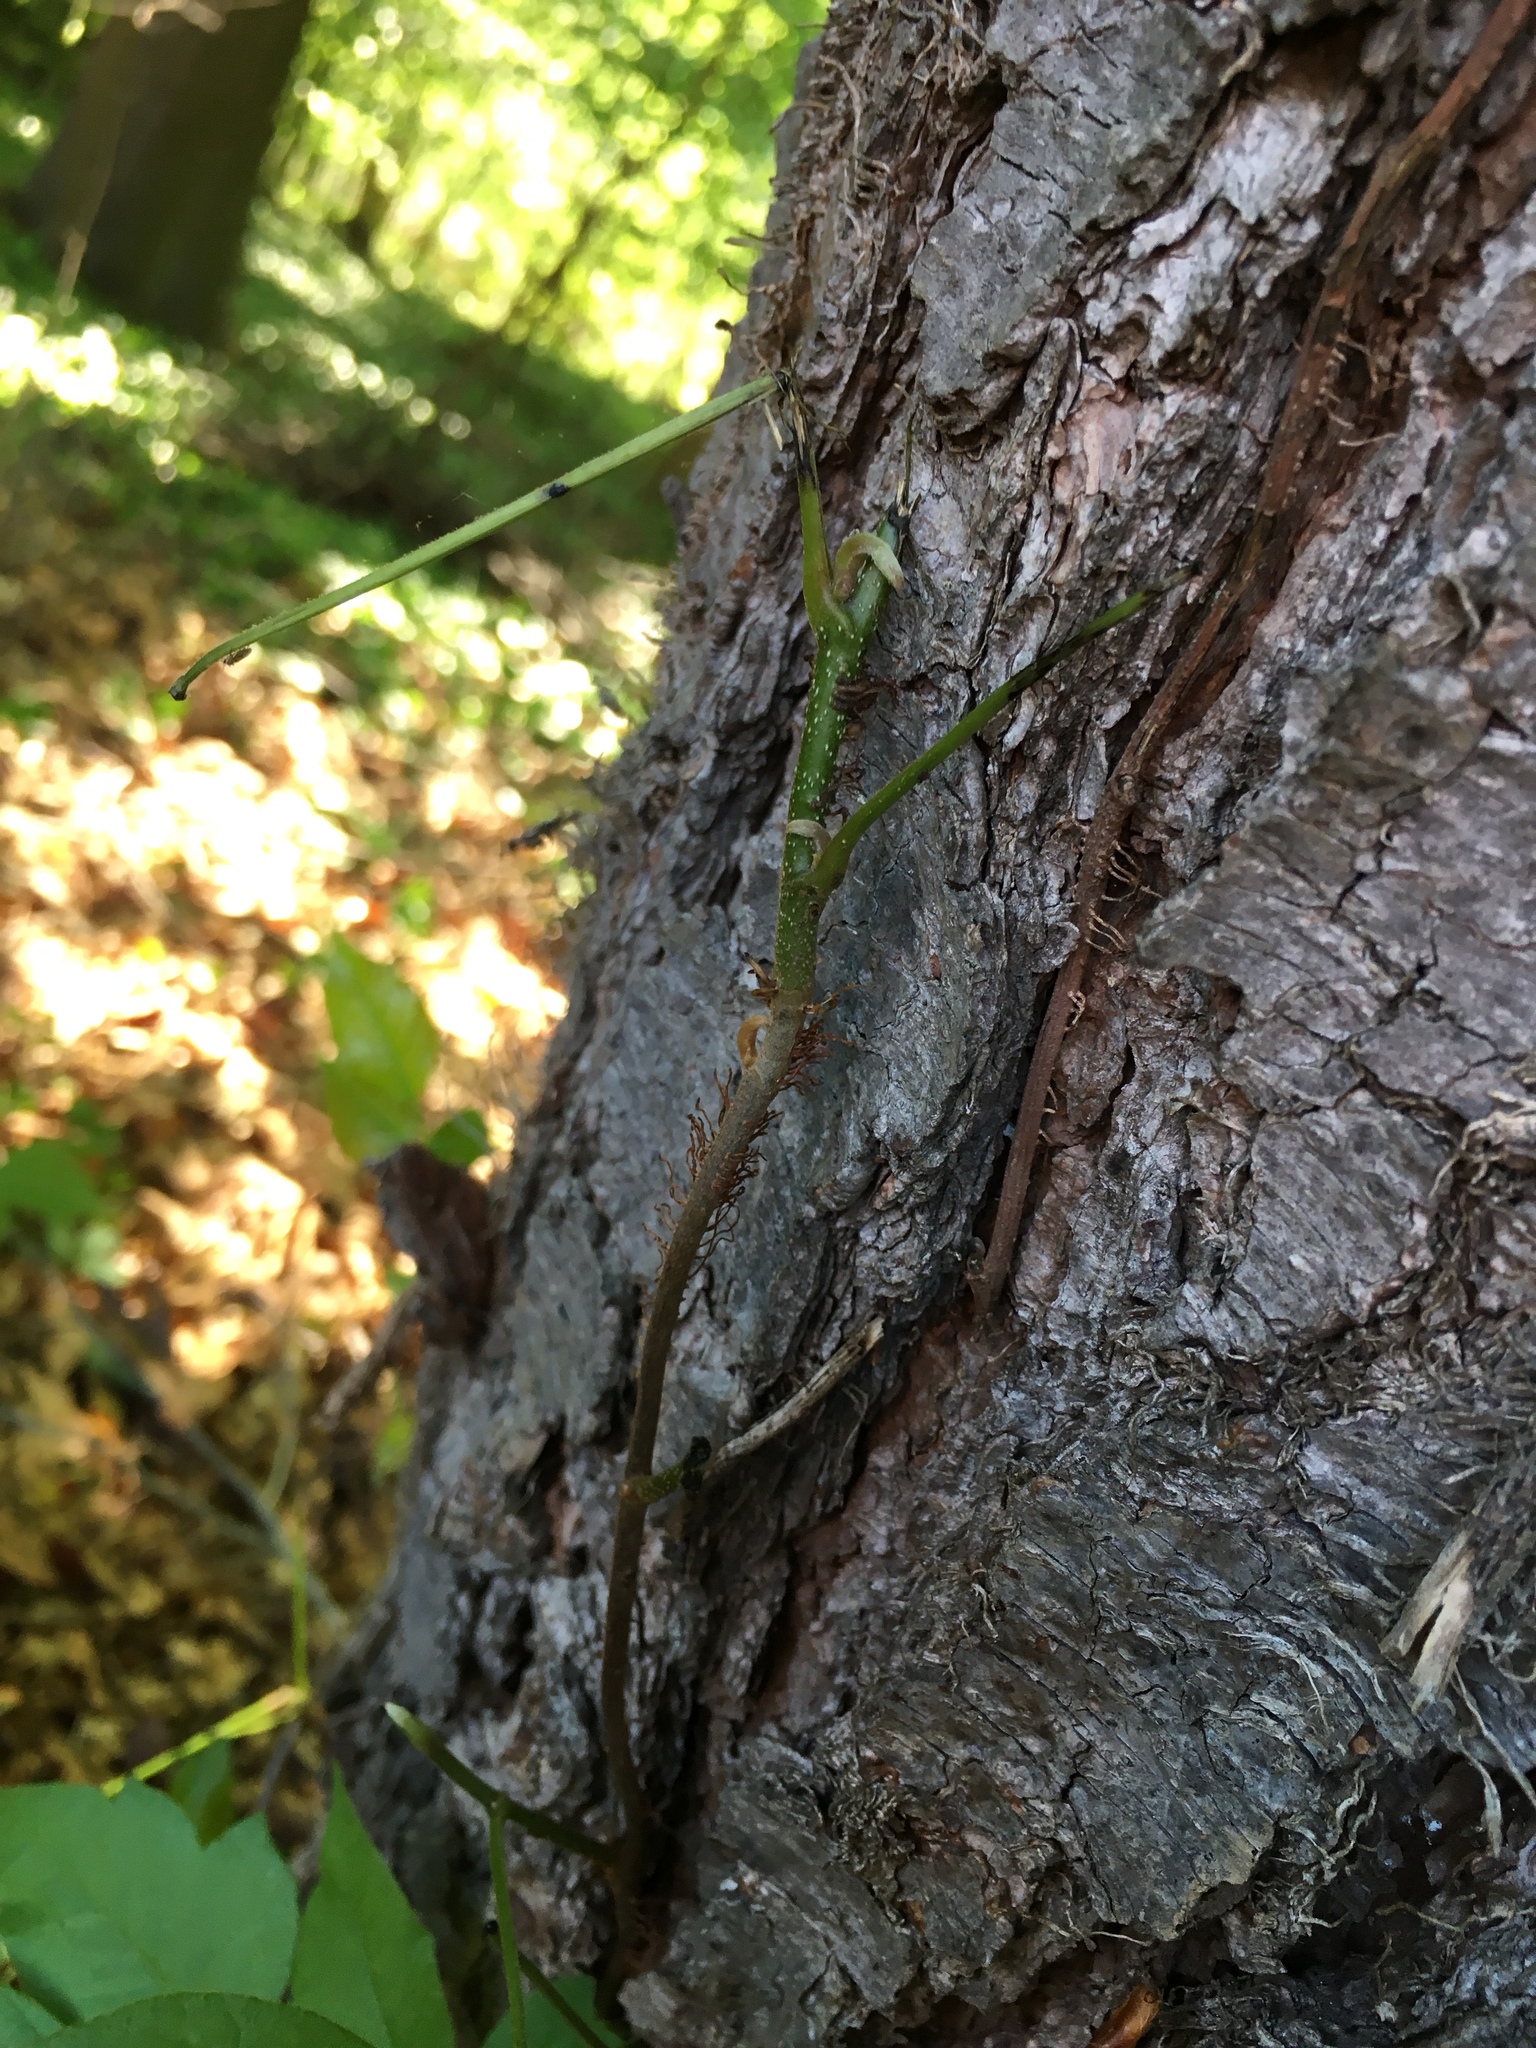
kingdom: Plantae
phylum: Tracheophyta
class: Magnoliopsida
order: Sapindales
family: Anacardiaceae
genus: Toxicodendron
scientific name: Toxicodendron radicans
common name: Poison ivy
